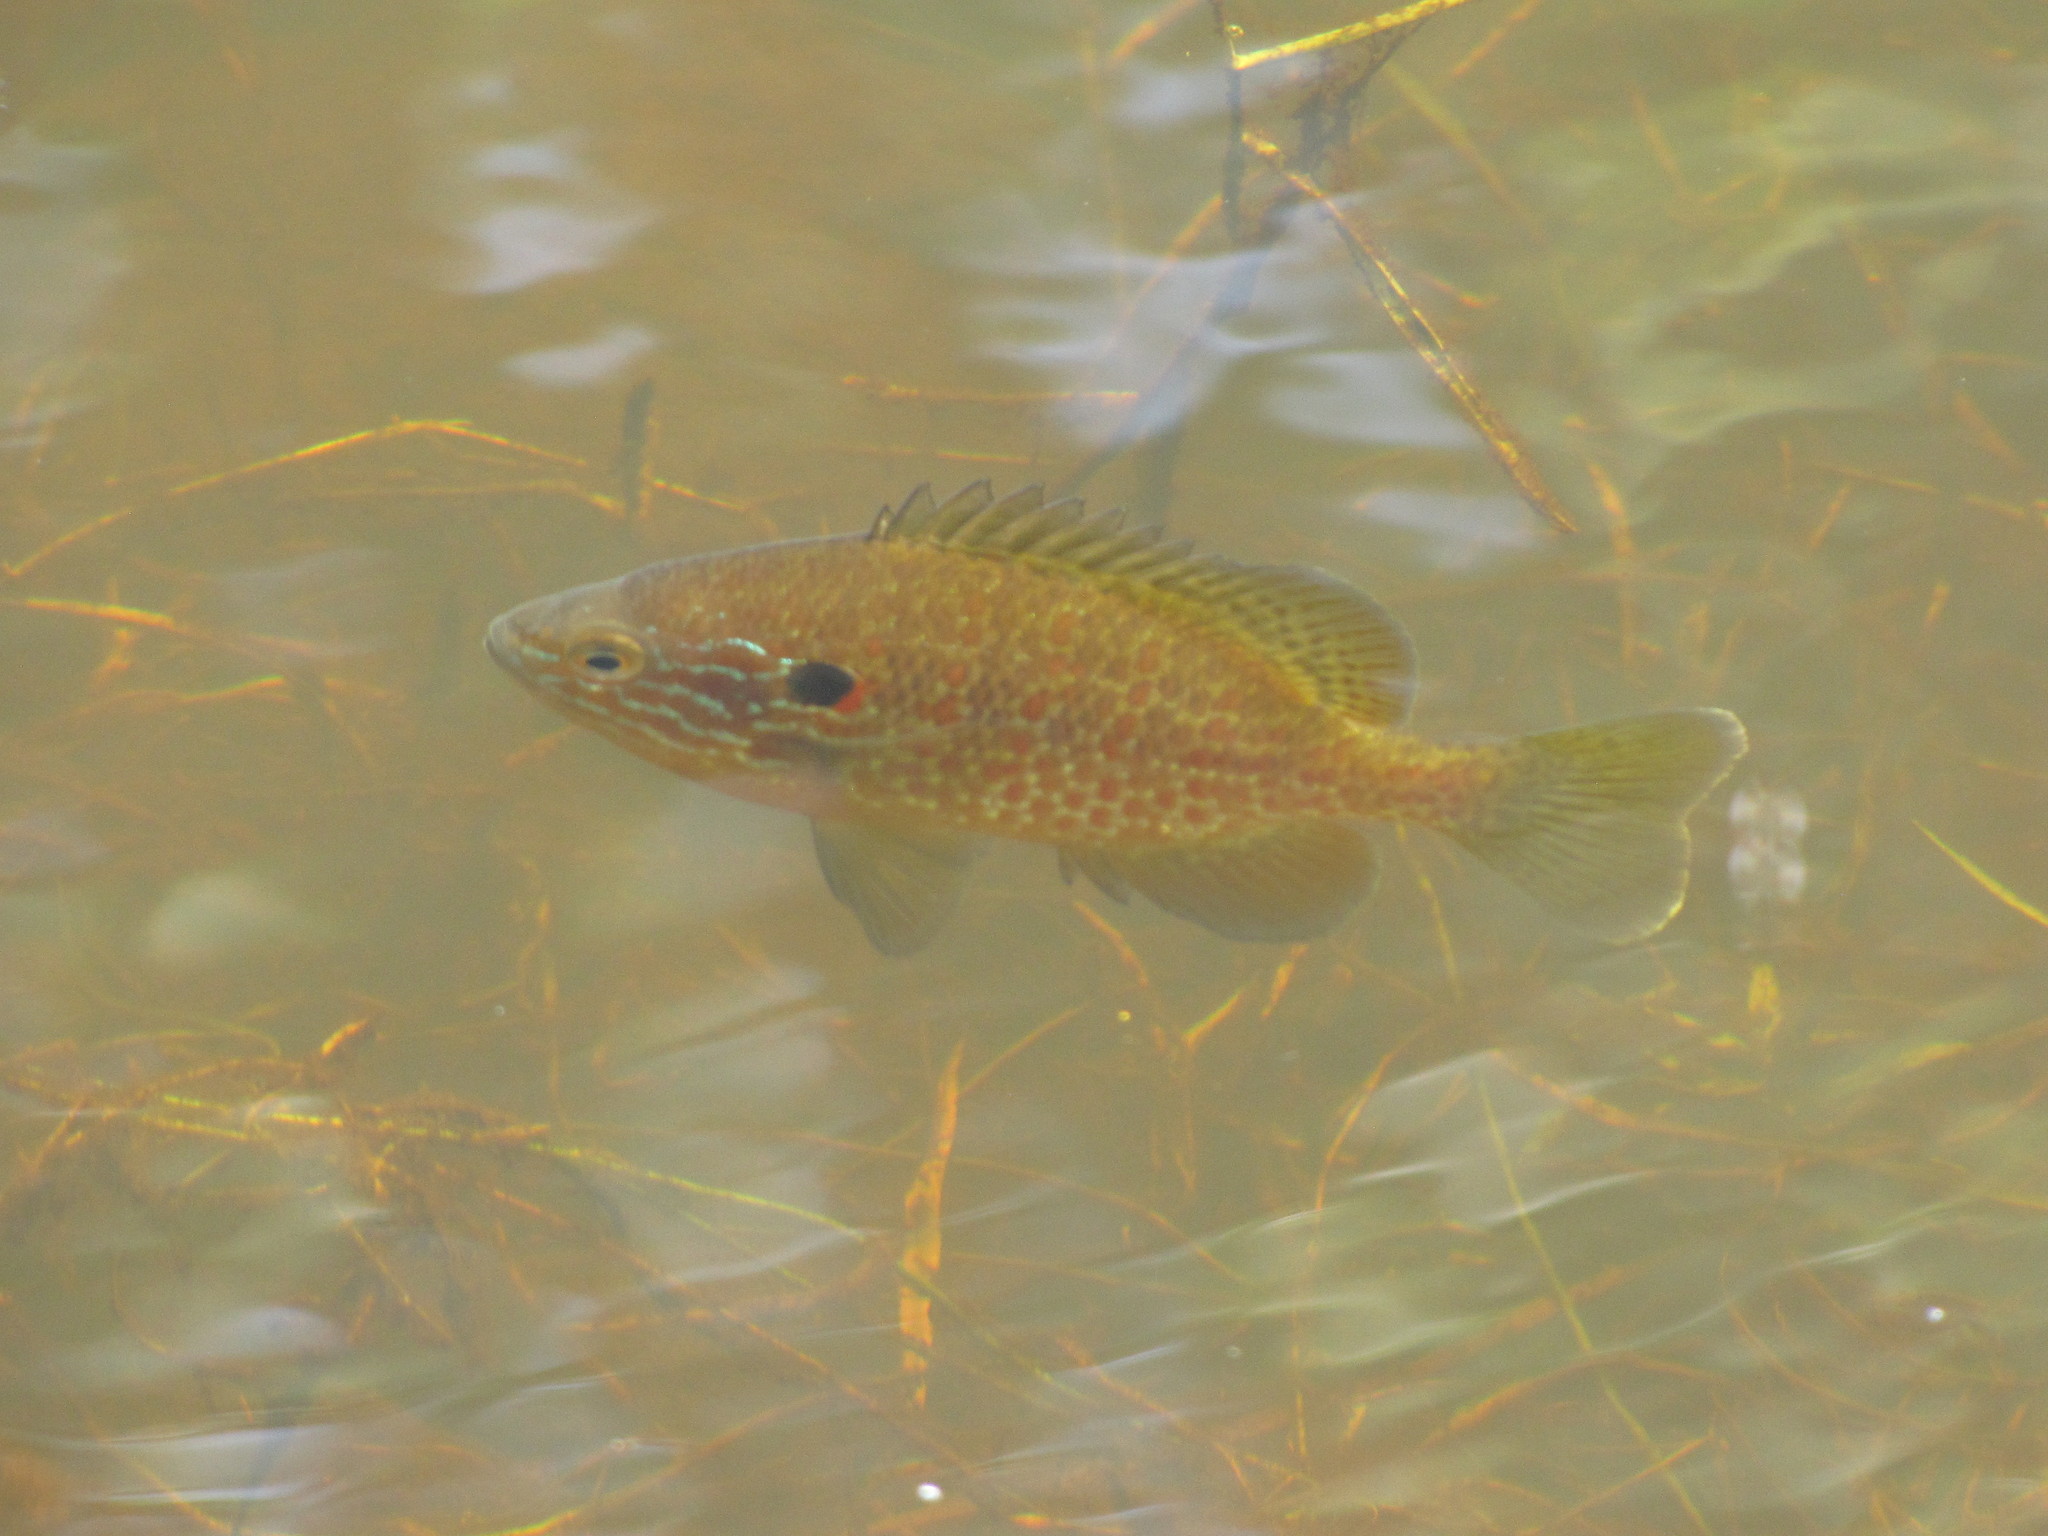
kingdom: Animalia
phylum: Chordata
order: Perciformes
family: Centrarchidae
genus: Lepomis
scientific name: Lepomis gibbosus
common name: Pumpkinseed
